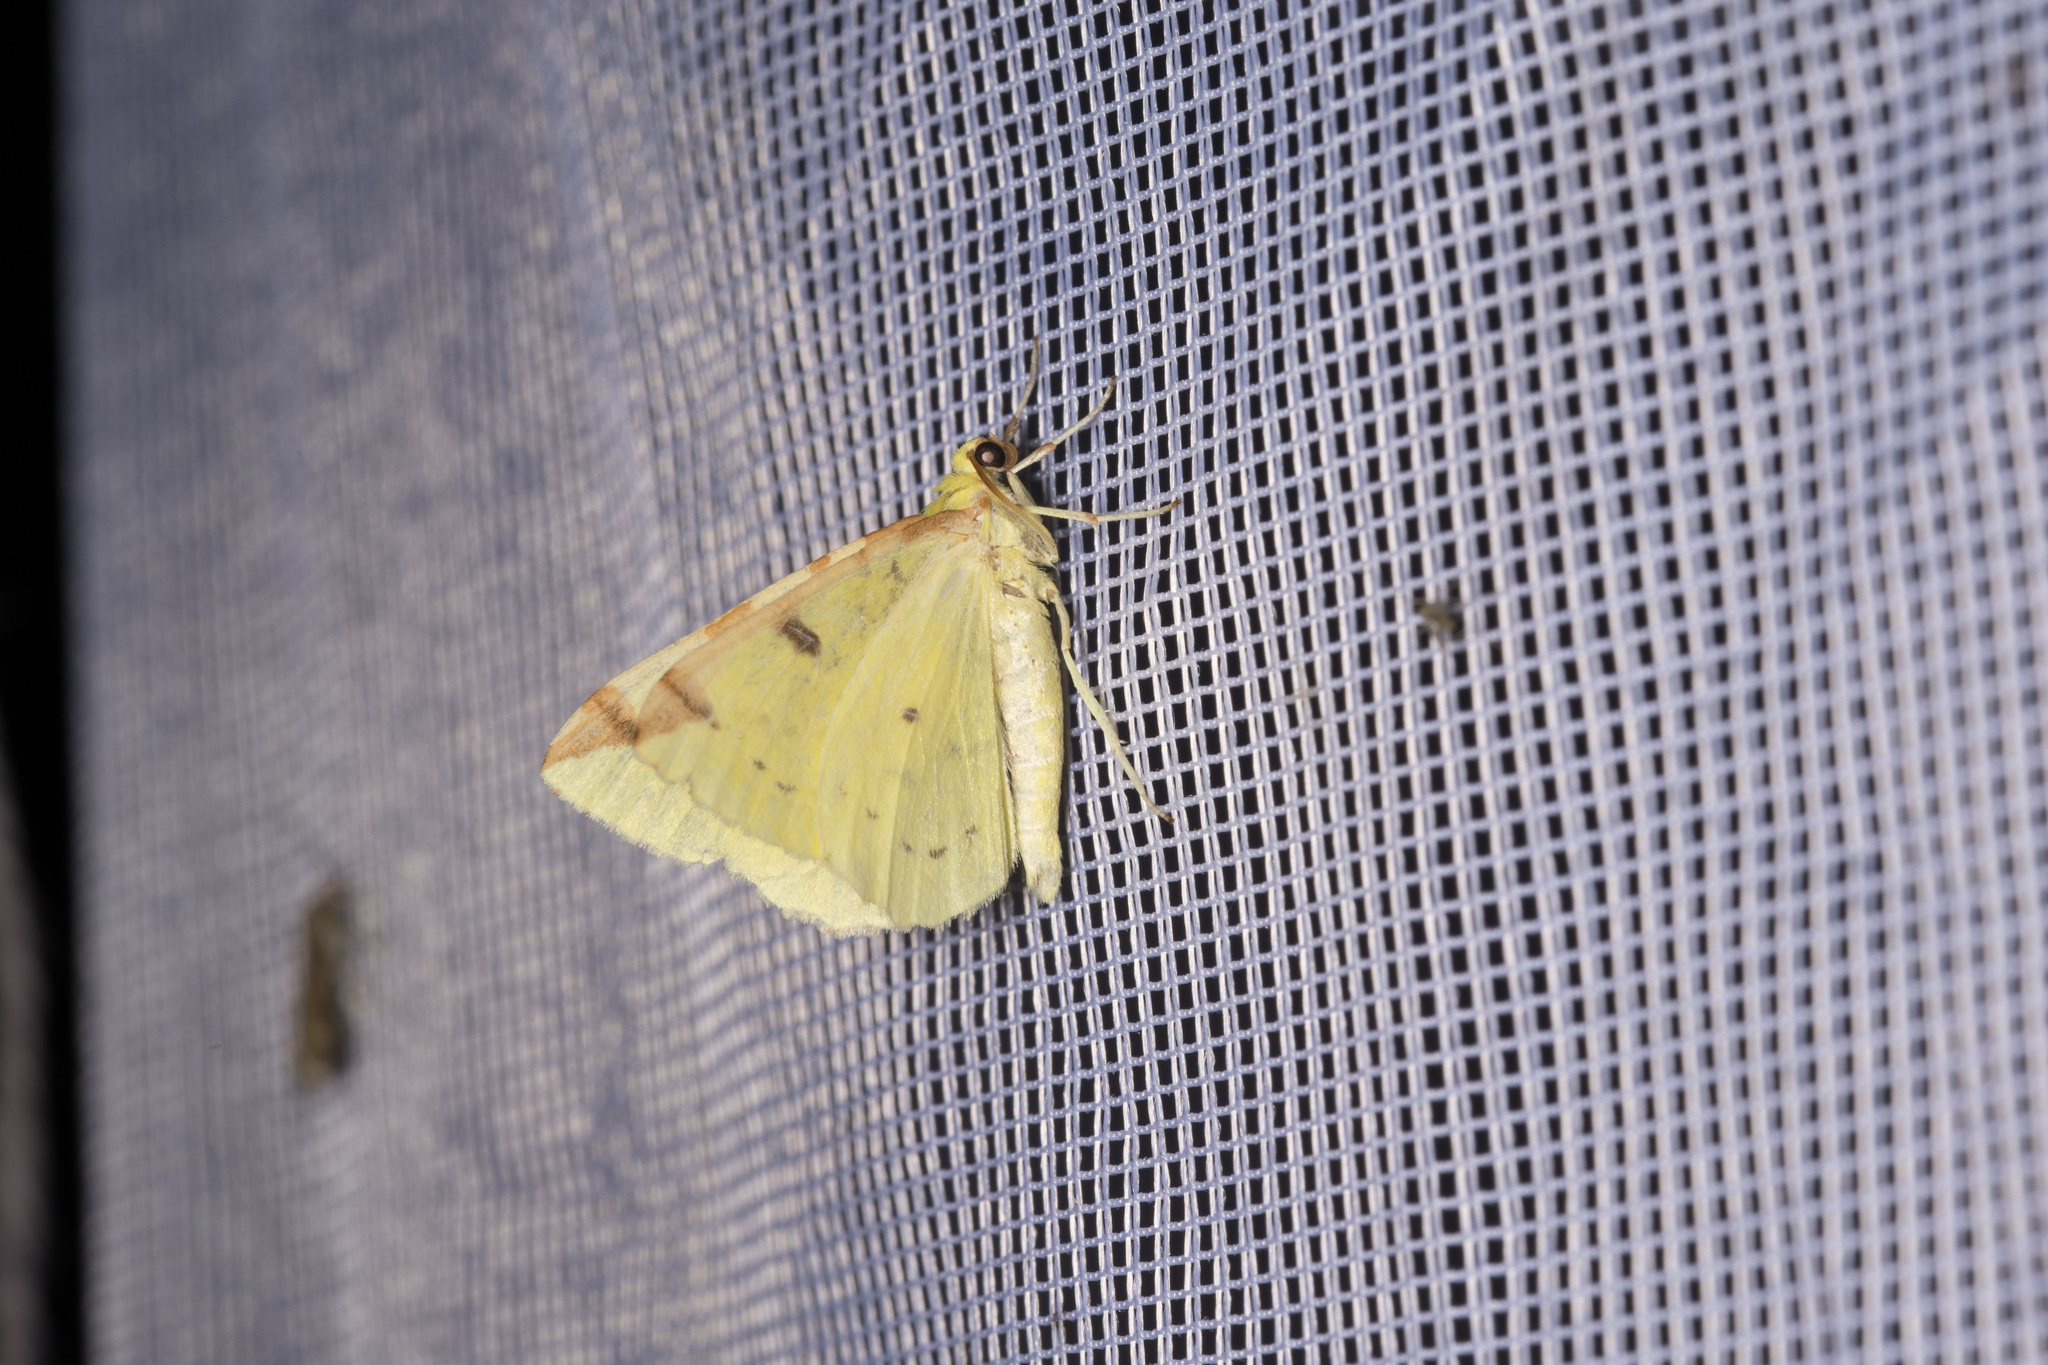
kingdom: Animalia
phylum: Arthropoda
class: Insecta
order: Lepidoptera
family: Geometridae
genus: Opisthograptis
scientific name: Opisthograptis luteolata
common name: Brimstone moth
